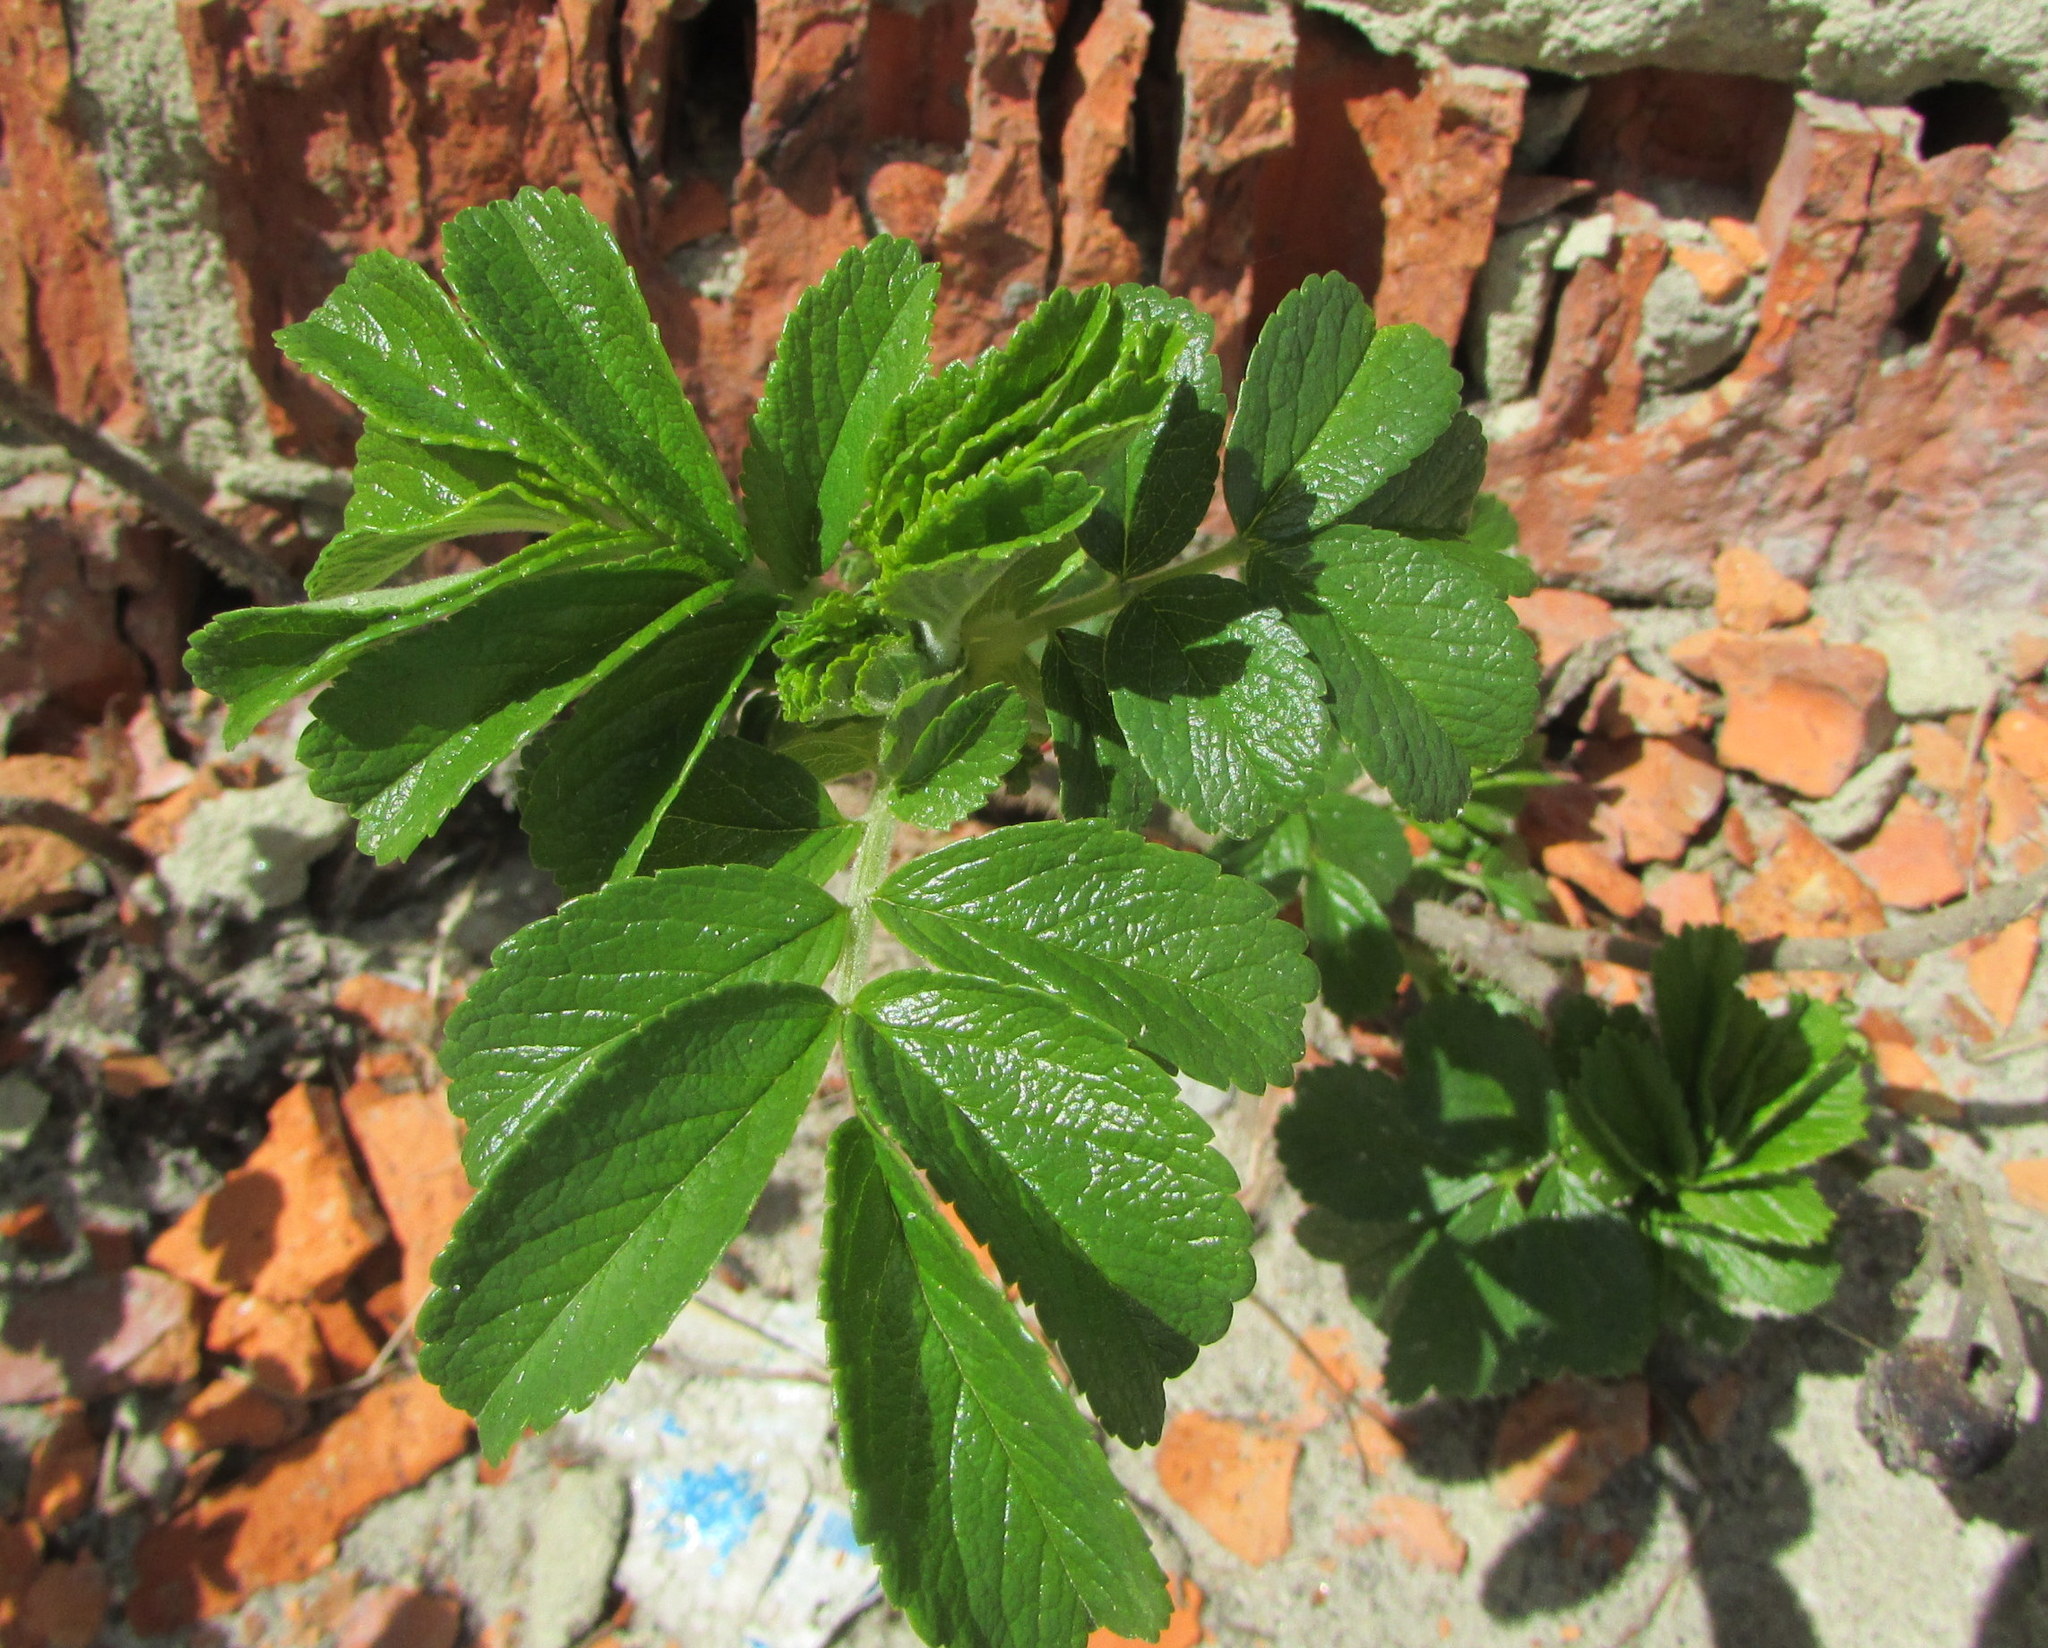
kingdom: Plantae
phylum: Tracheophyta
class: Magnoliopsida
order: Rosales
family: Rosaceae
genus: Rosa
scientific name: Rosa rugosa
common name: Japanese rose
